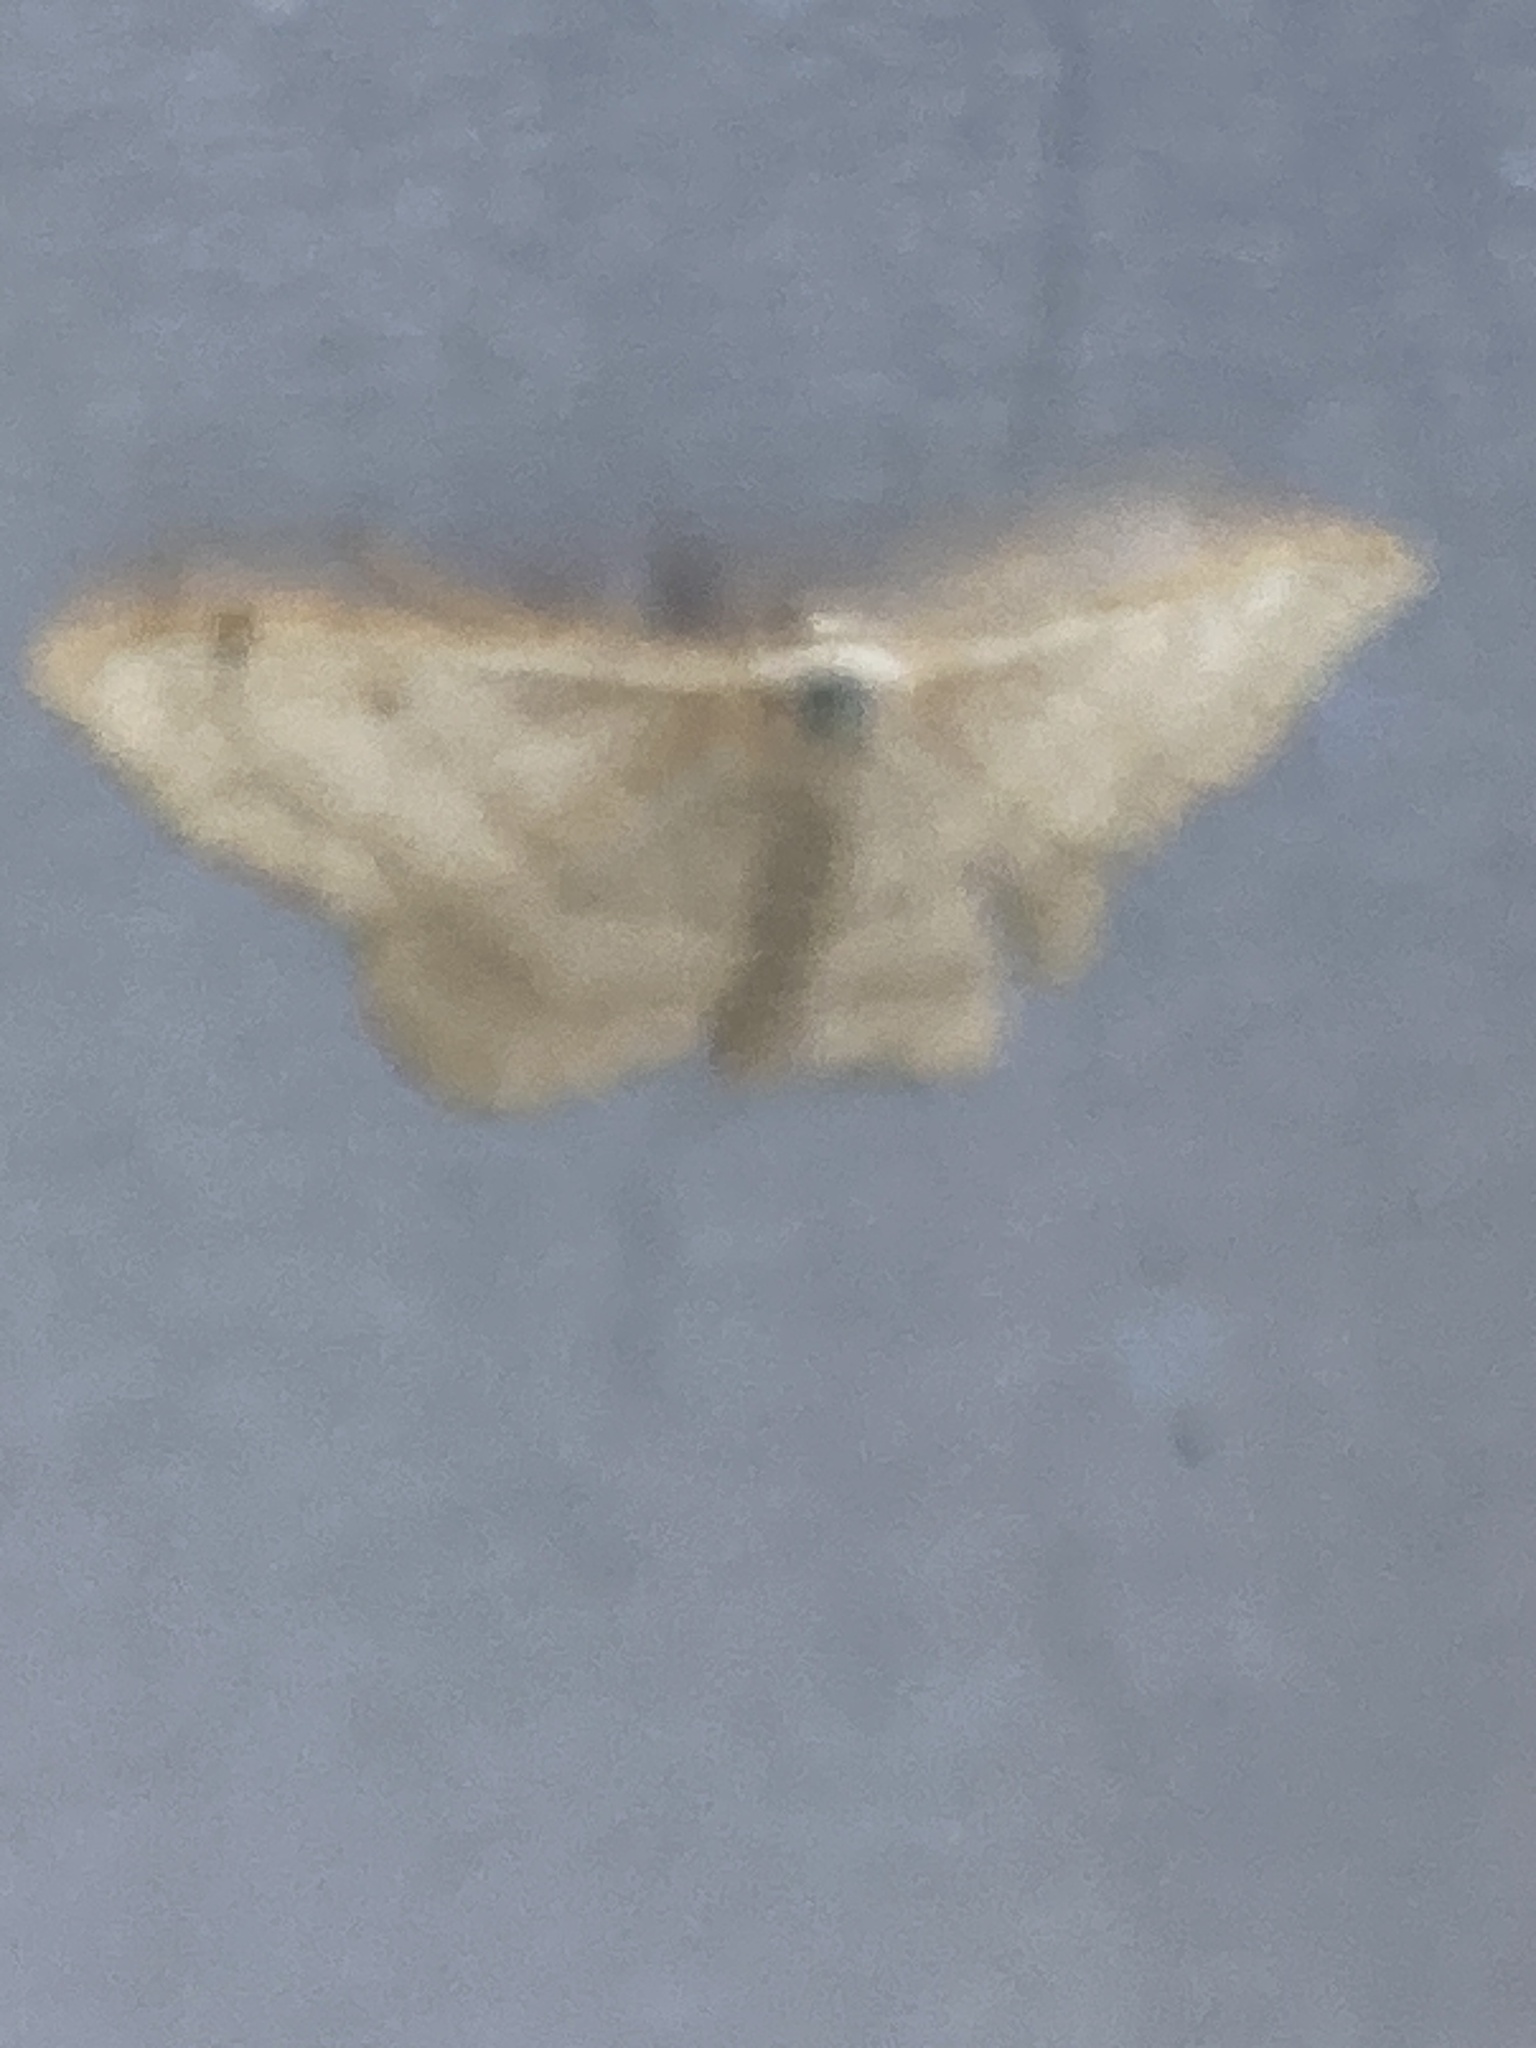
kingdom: Animalia
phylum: Arthropoda
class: Insecta
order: Lepidoptera
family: Geometridae
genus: Idaea
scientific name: Idaea aversata
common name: Riband wave
